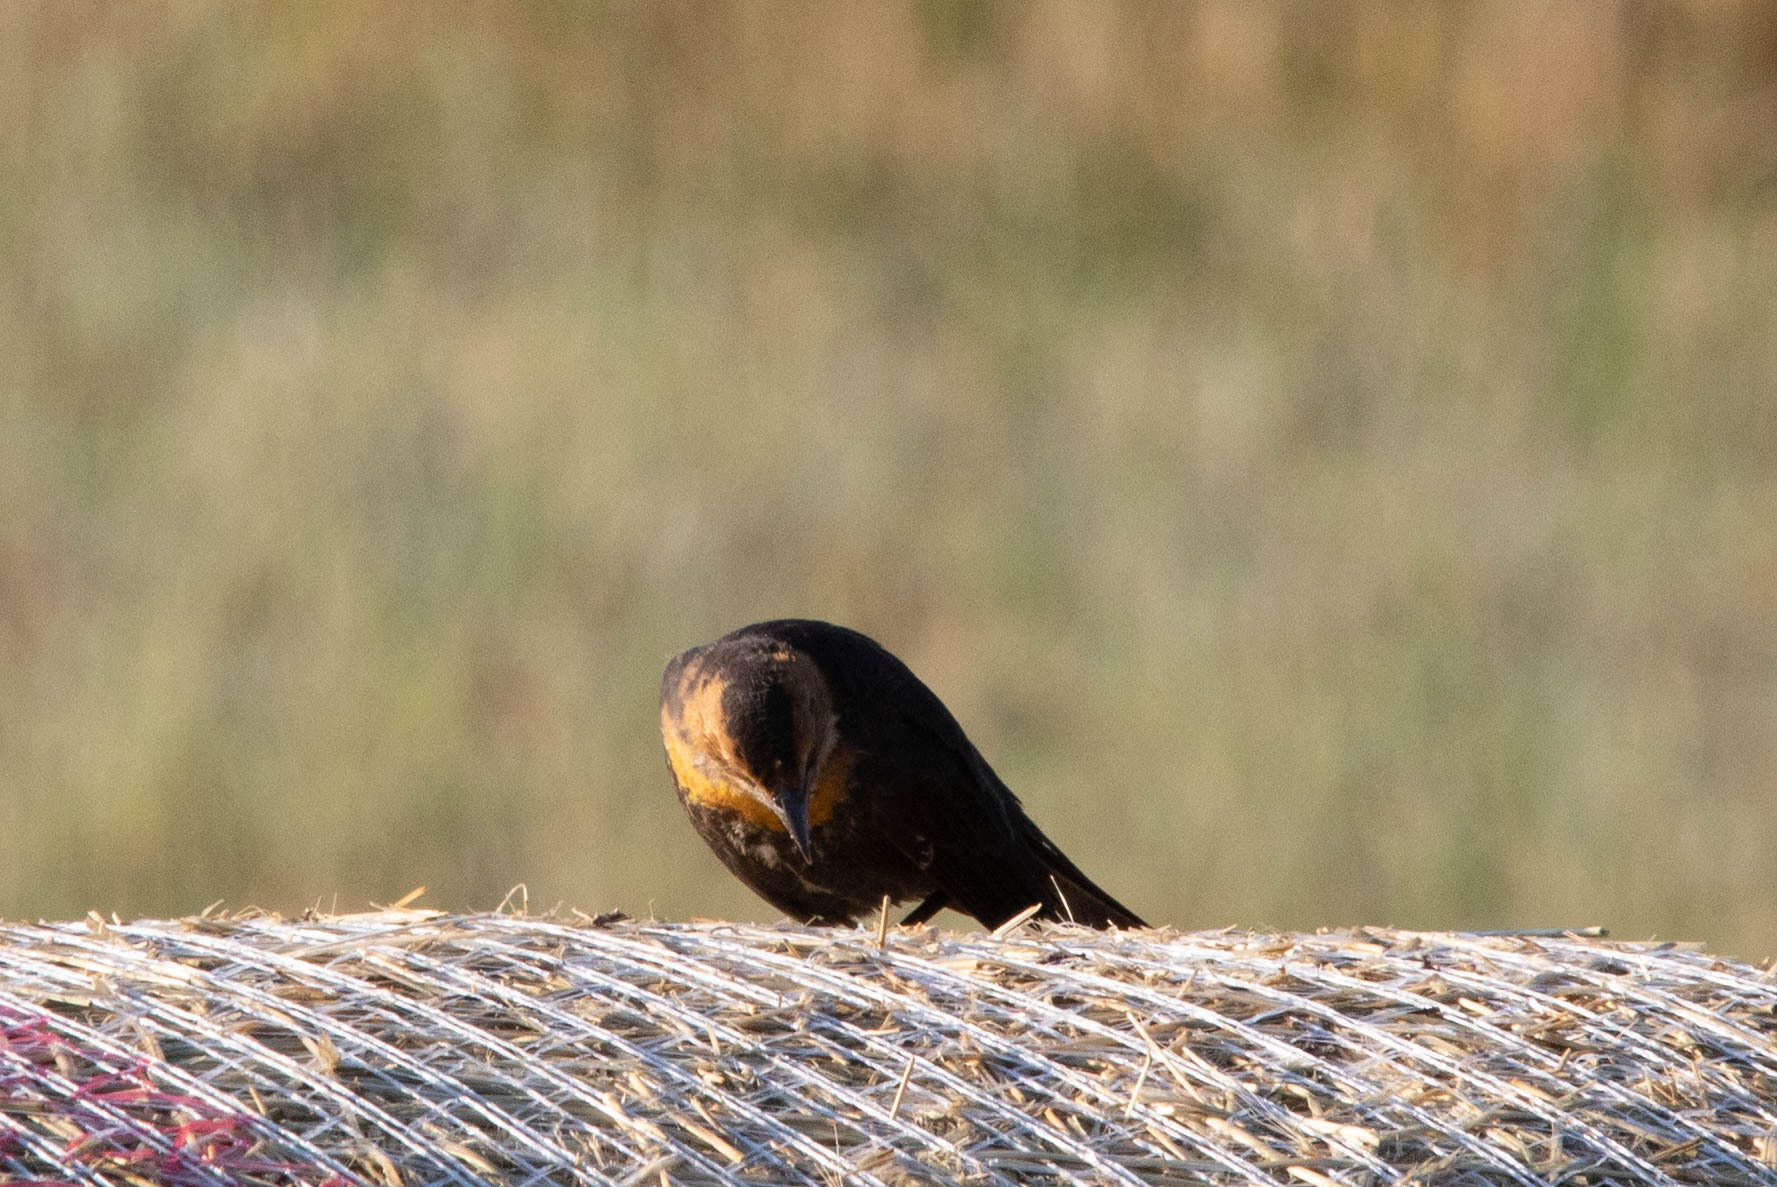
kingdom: Animalia
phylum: Chordata
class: Aves
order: Passeriformes
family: Icteridae
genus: Xanthocephalus
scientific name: Xanthocephalus xanthocephalus
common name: Yellow-headed blackbird
